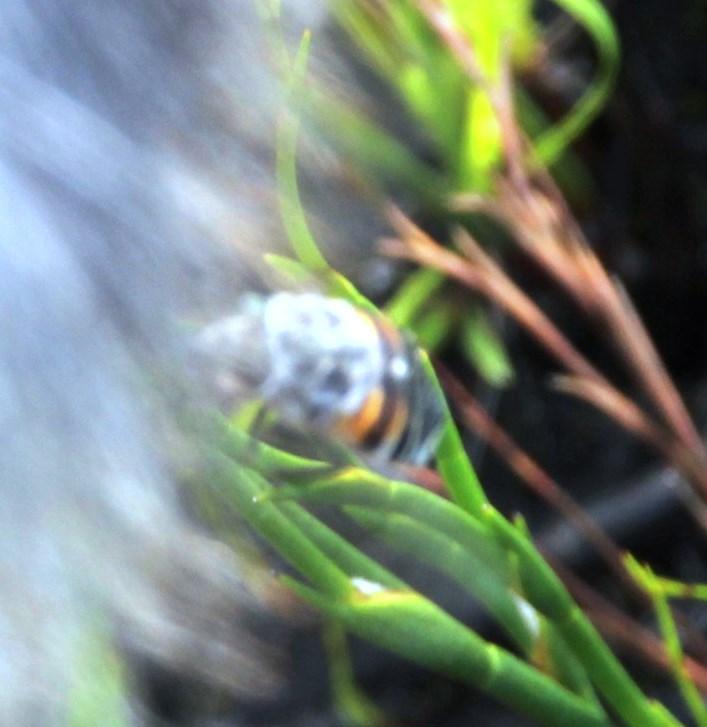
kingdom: Animalia
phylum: Arthropoda
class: Insecta
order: Diptera
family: Tabanidae
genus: Philoliche
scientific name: Philoliche rostrata
